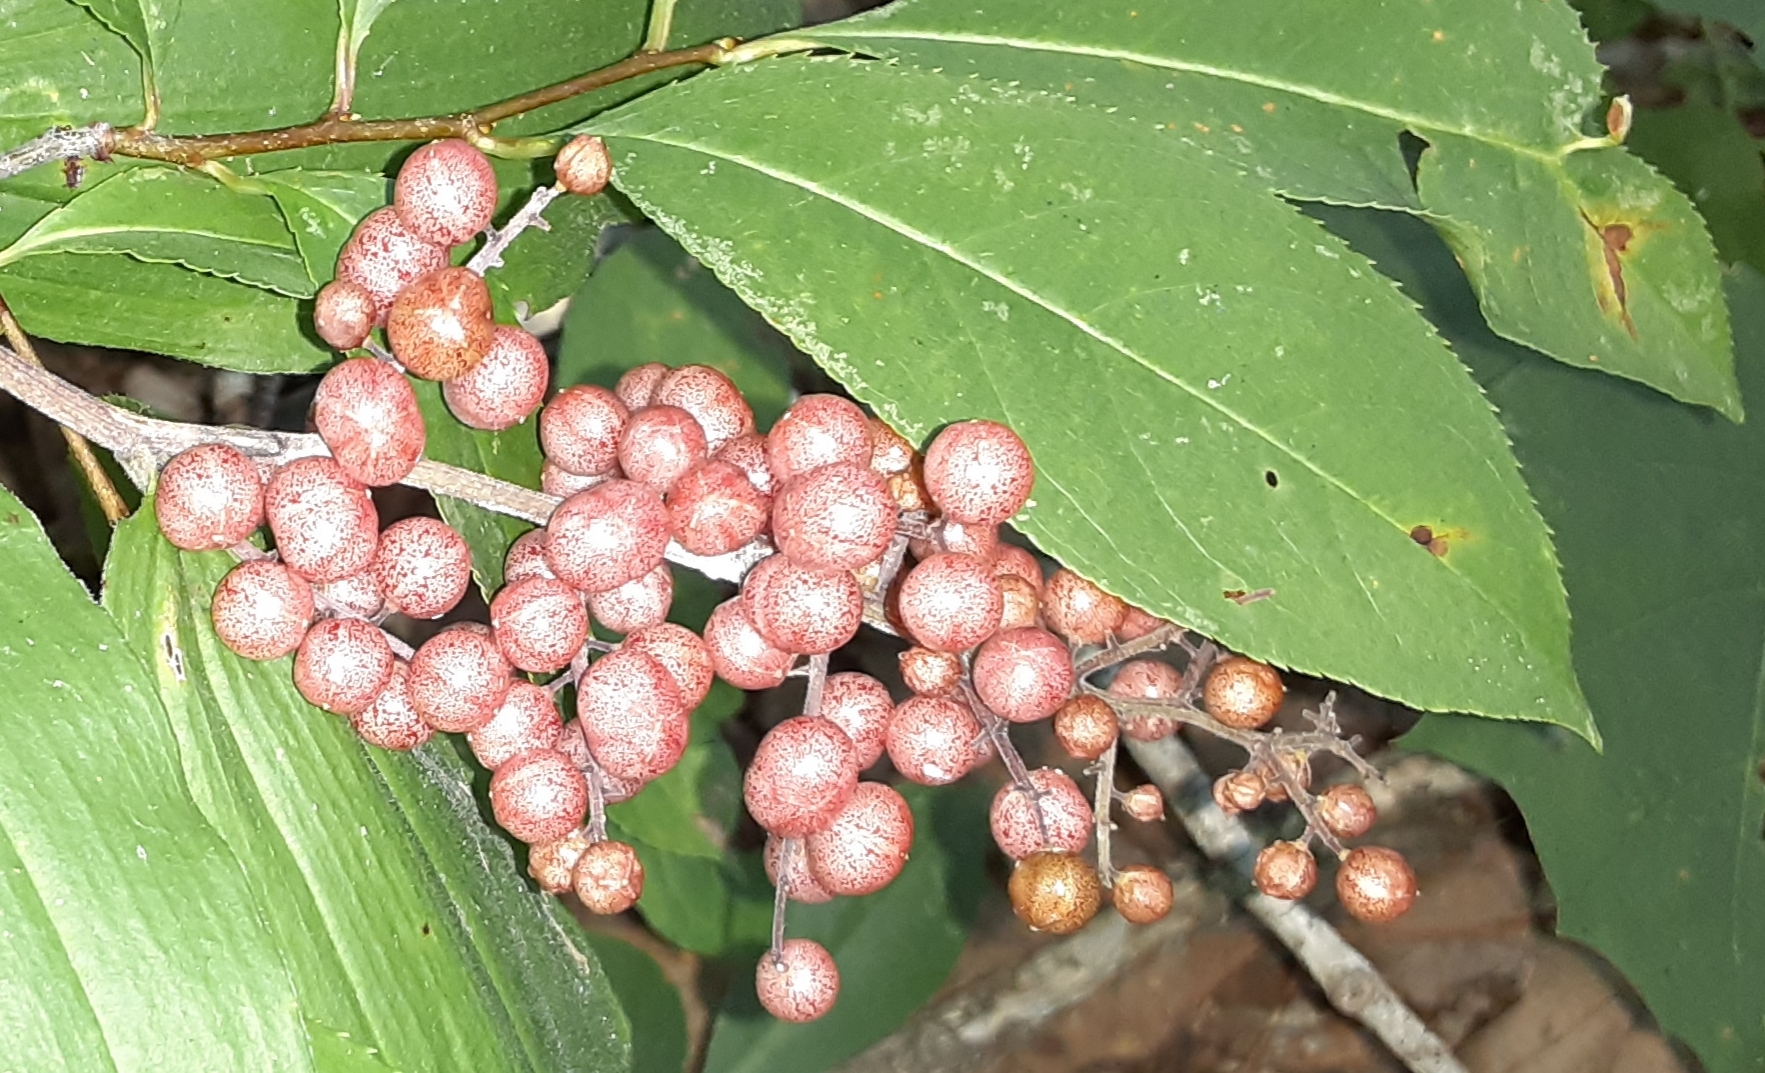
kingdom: Plantae
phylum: Tracheophyta
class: Liliopsida
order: Asparagales
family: Asparagaceae
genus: Maianthemum
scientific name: Maianthemum racemosum
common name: False spikenard
